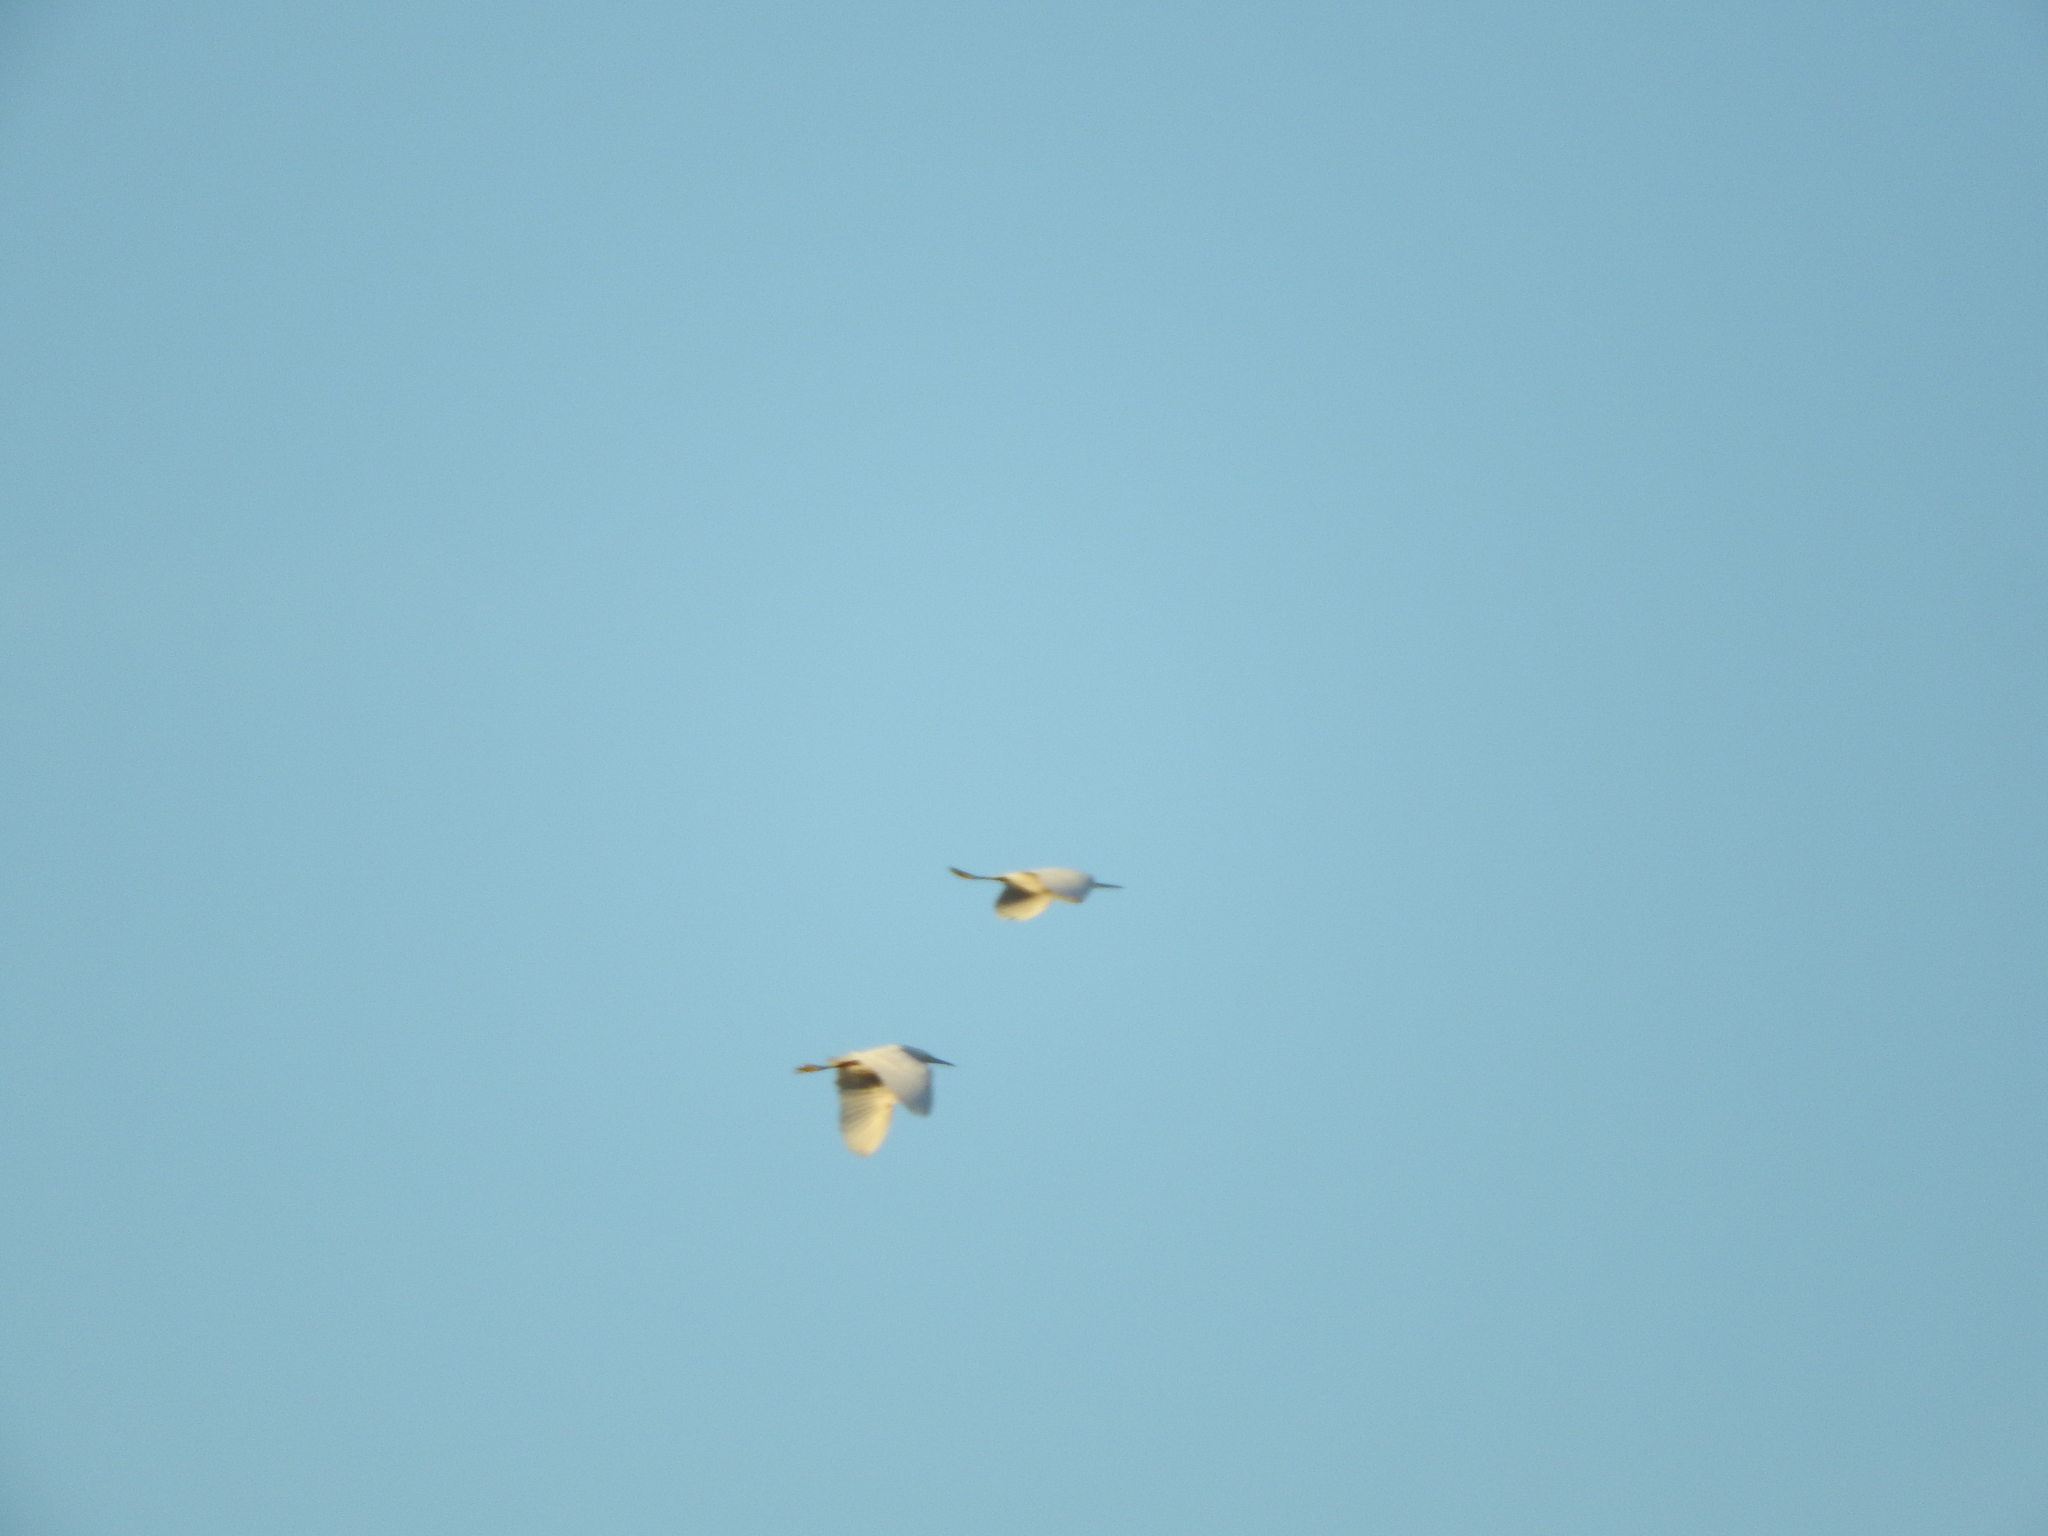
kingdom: Animalia
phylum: Chordata
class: Aves
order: Pelecaniformes
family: Ardeidae
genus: Egretta
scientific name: Egretta thula
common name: Snowy egret
